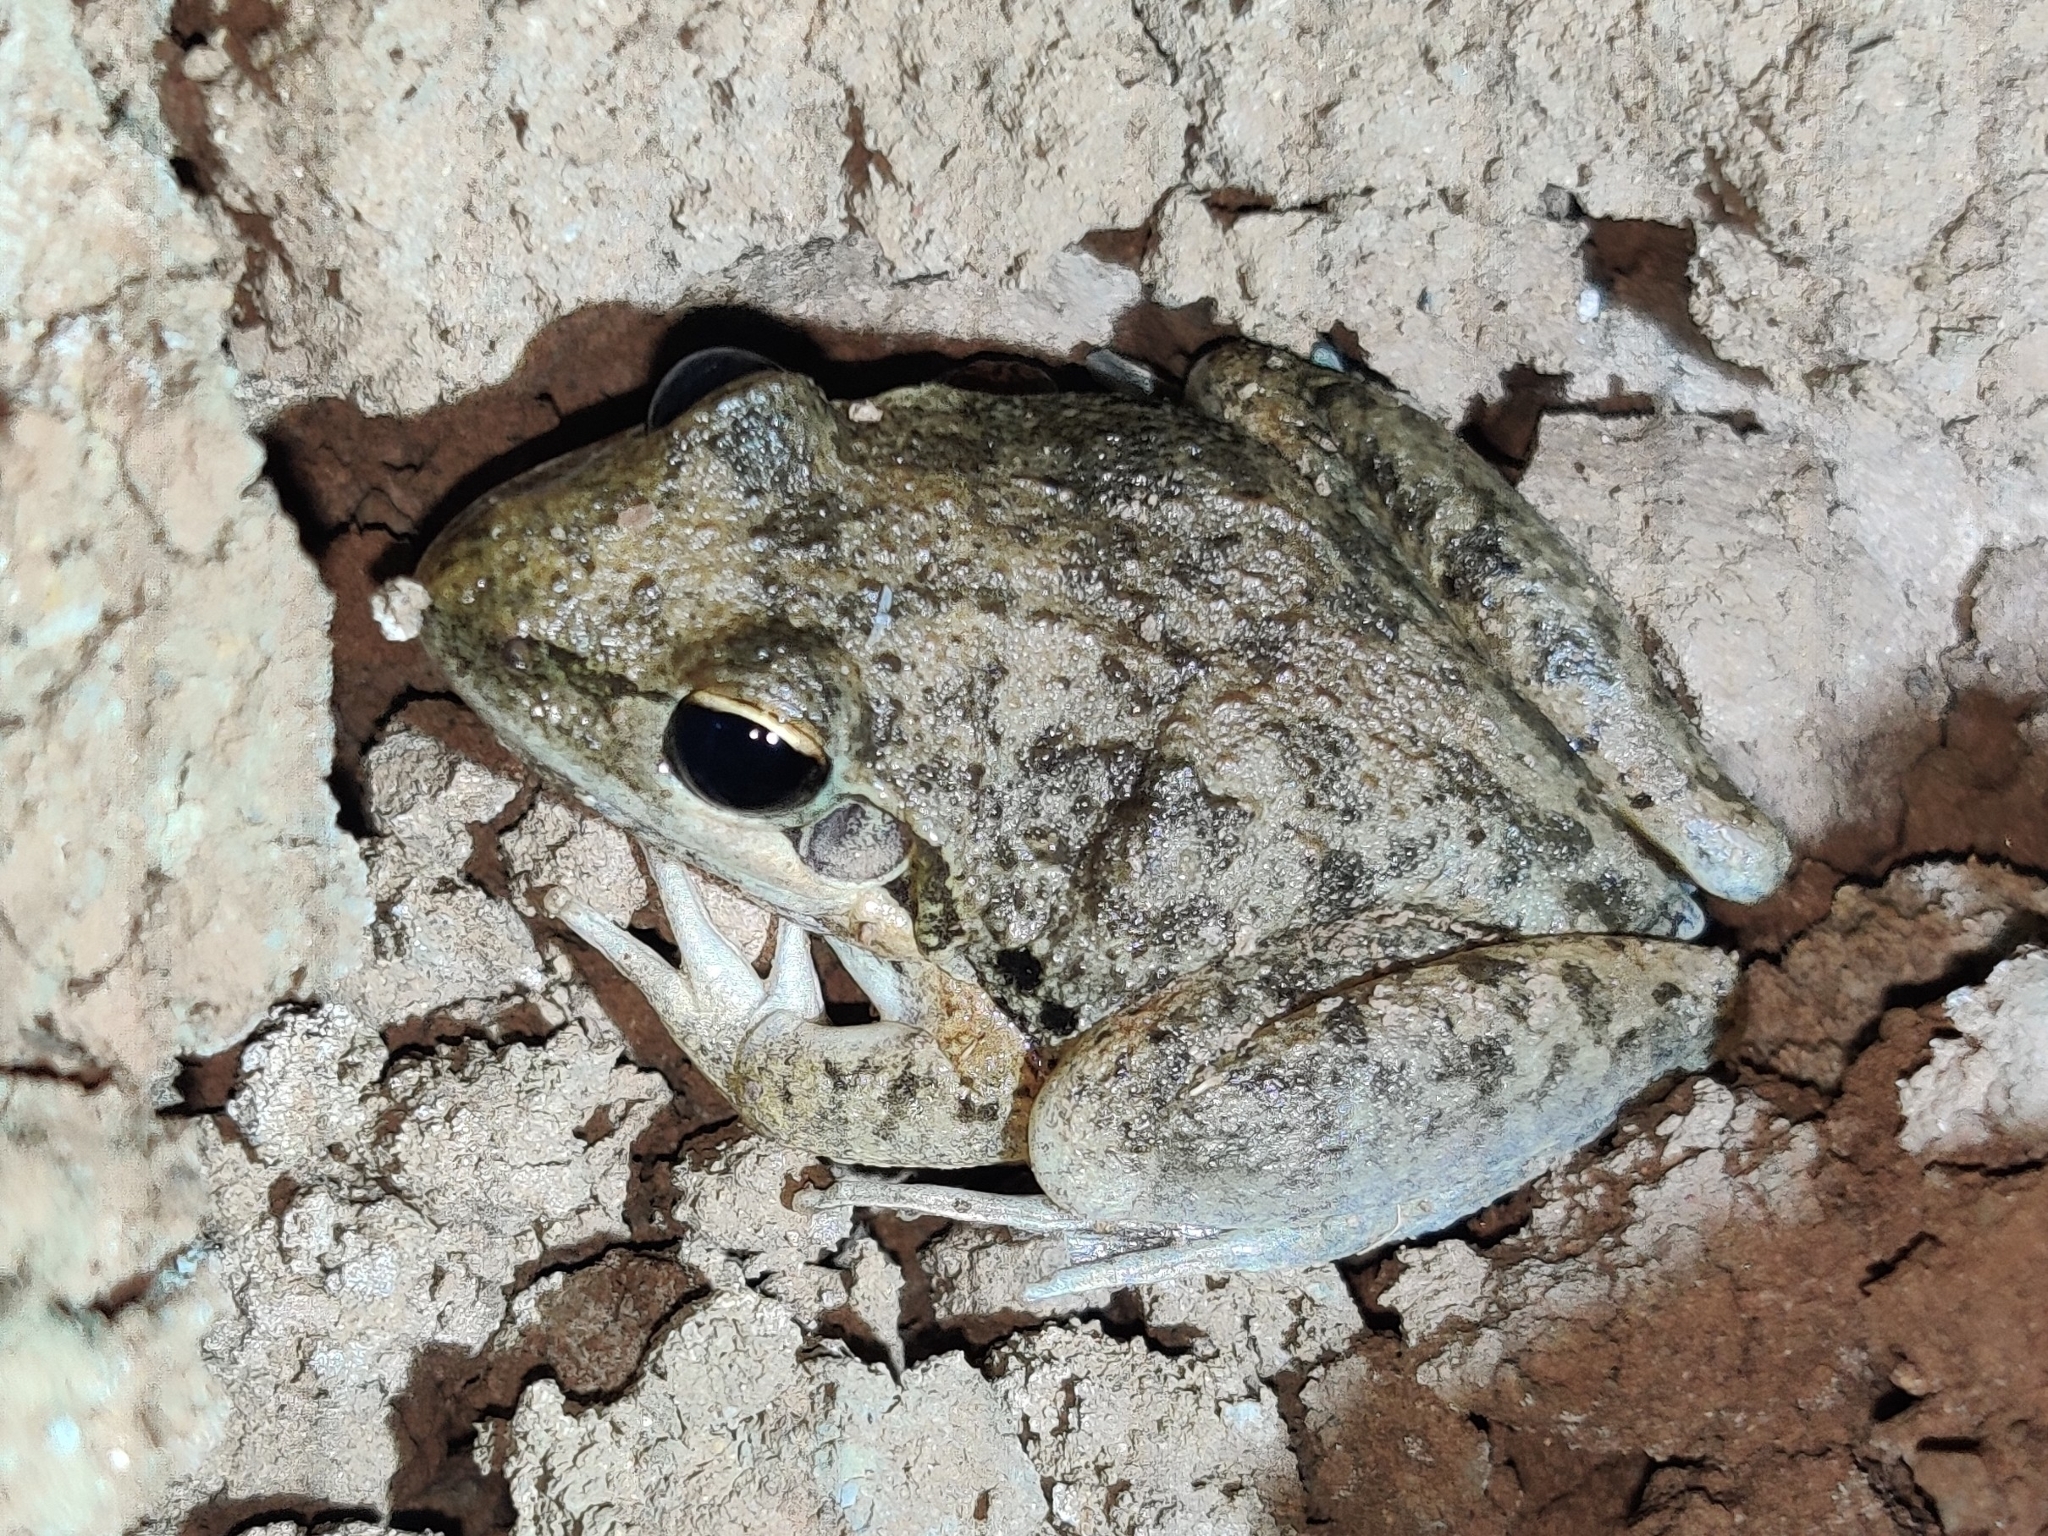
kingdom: Animalia
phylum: Chordata
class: Amphibia
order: Anura
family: Pelodryadidae
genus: Litoria
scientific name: Litoria inermis
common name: Bumpy rocket frog
